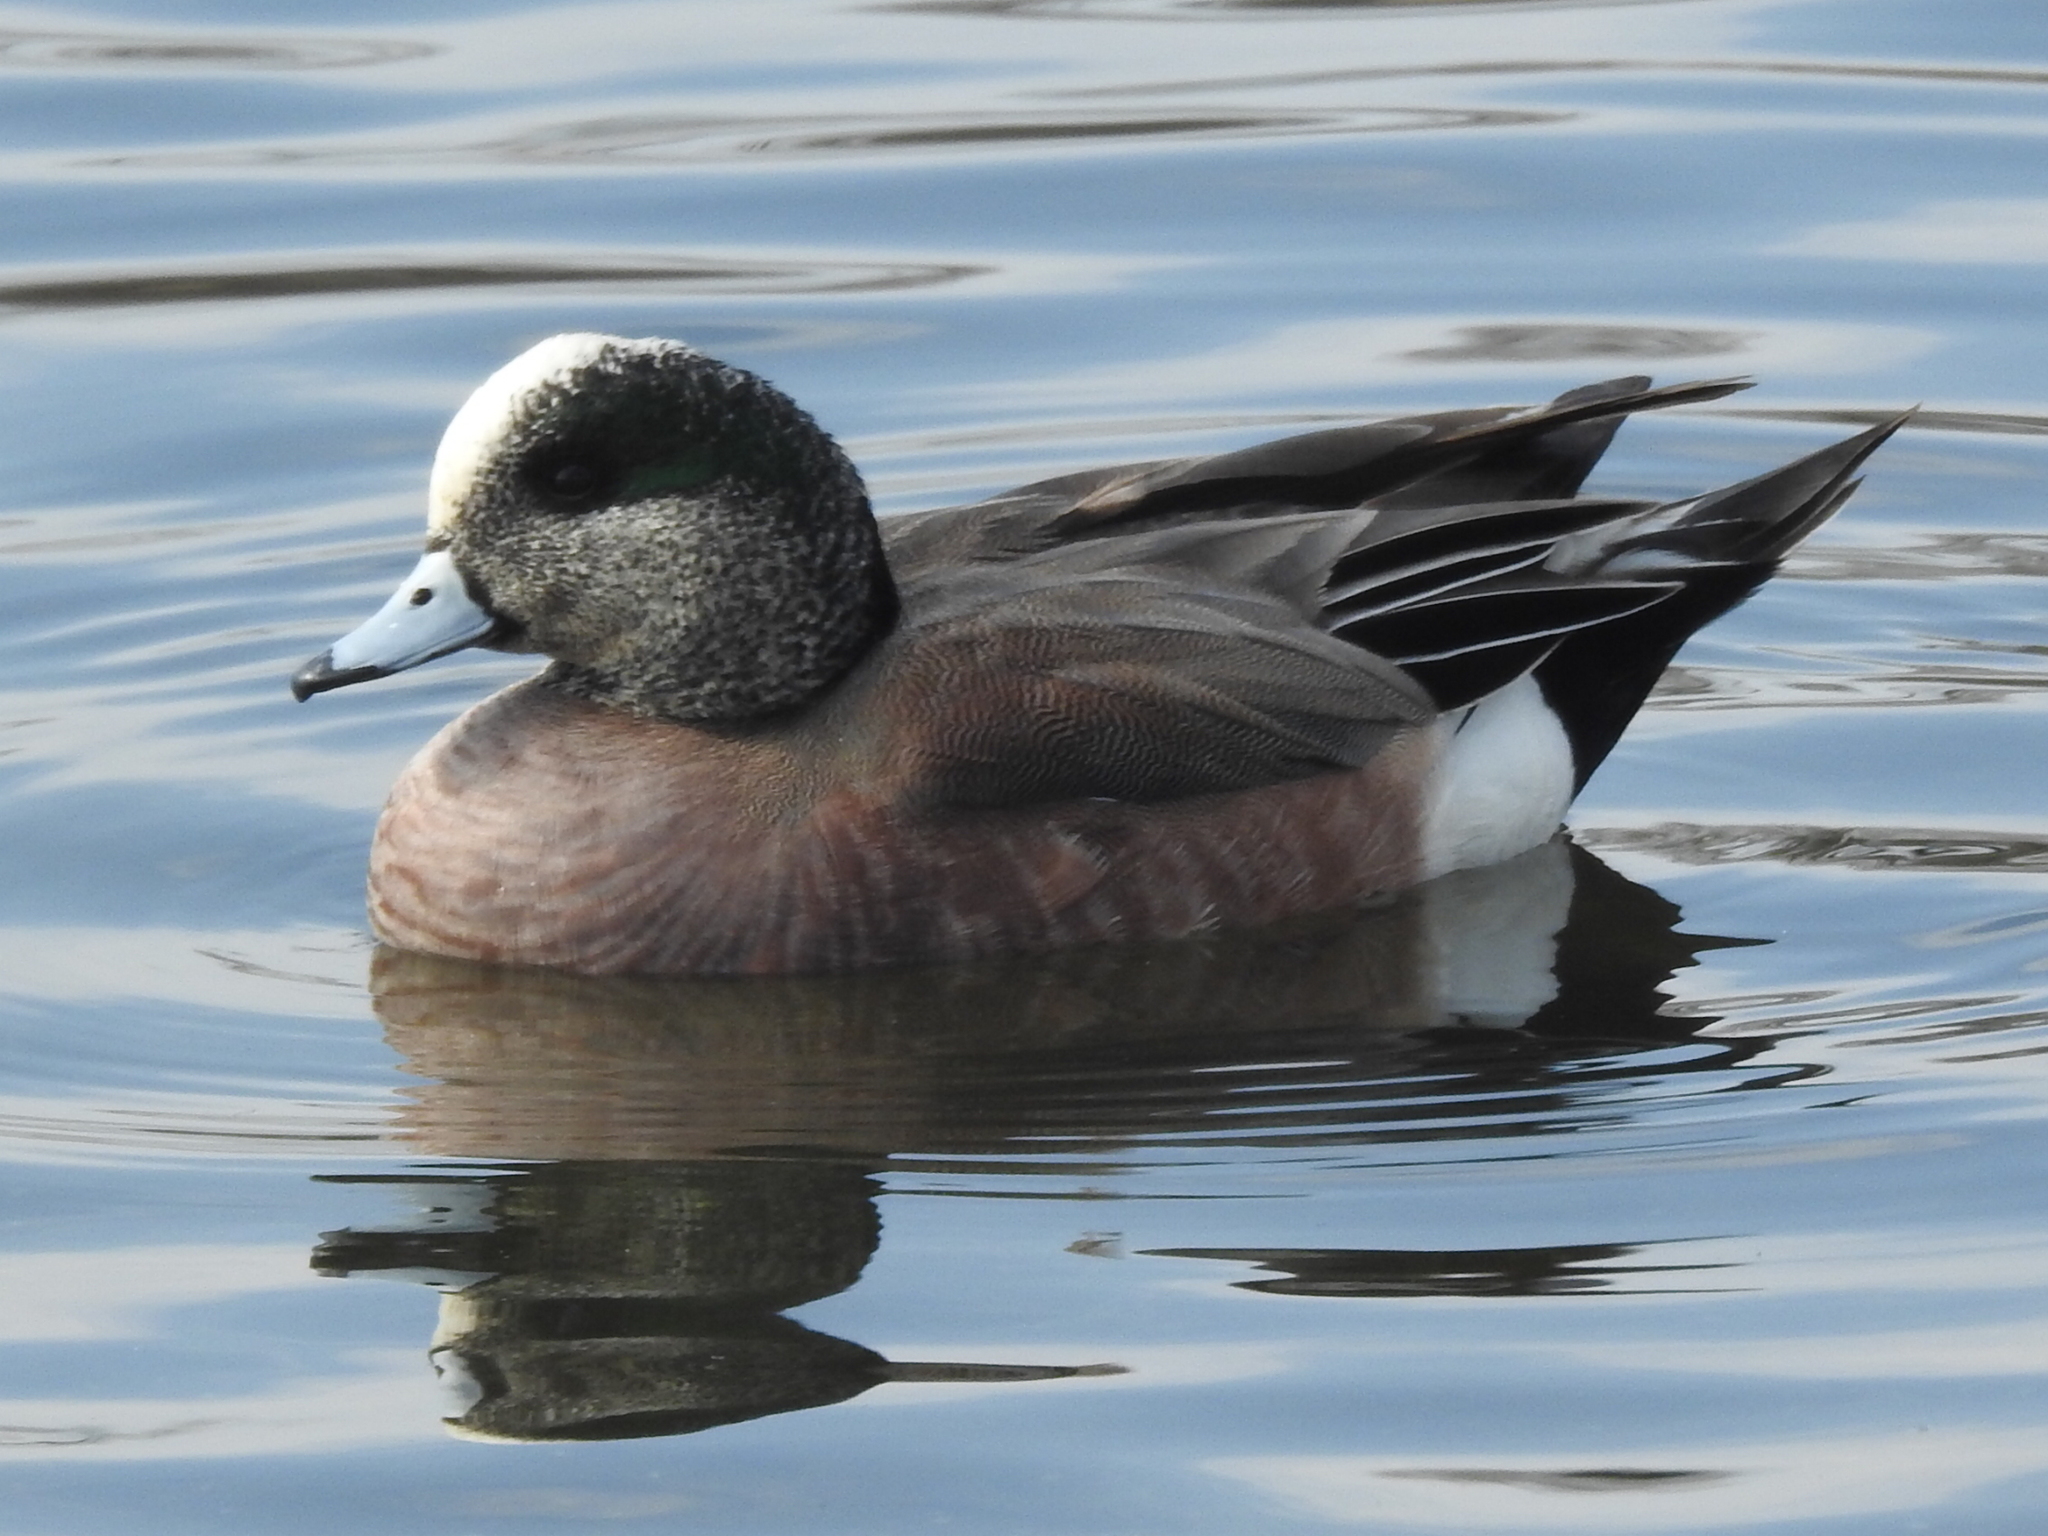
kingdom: Animalia
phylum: Chordata
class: Aves
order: Anseriformes
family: Anatidae
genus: Mareca
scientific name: Mareca americana
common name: American wigeon
